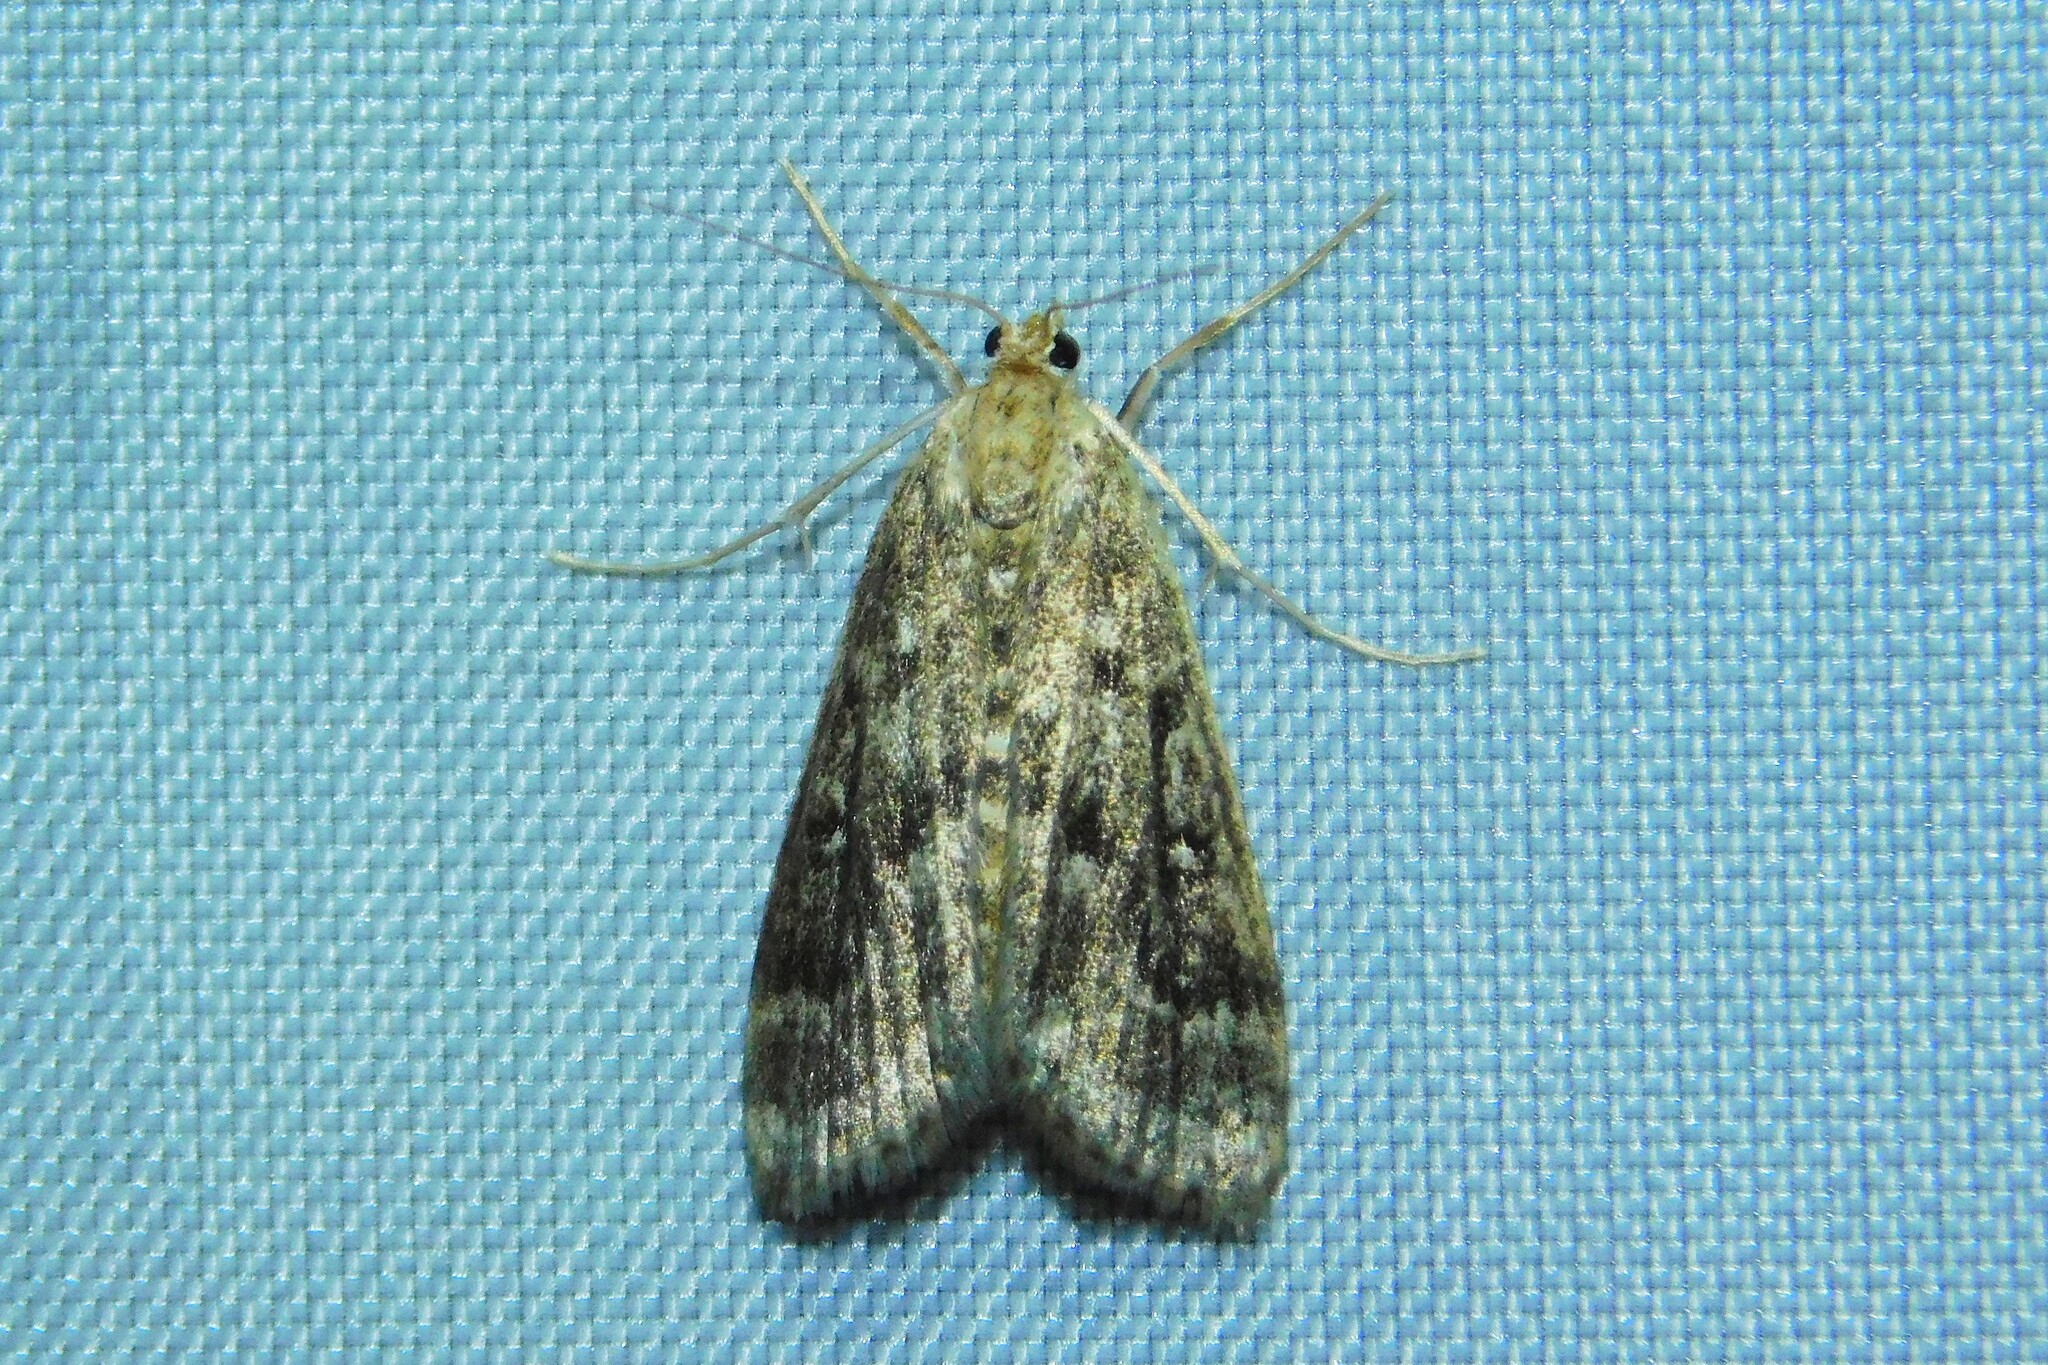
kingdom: Animalia
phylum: Arthropoda
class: Insecta
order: Lepidoptera
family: Crambidae
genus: Parapoynx
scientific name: Parapoynx stratiotata
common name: Ringed china-mark
